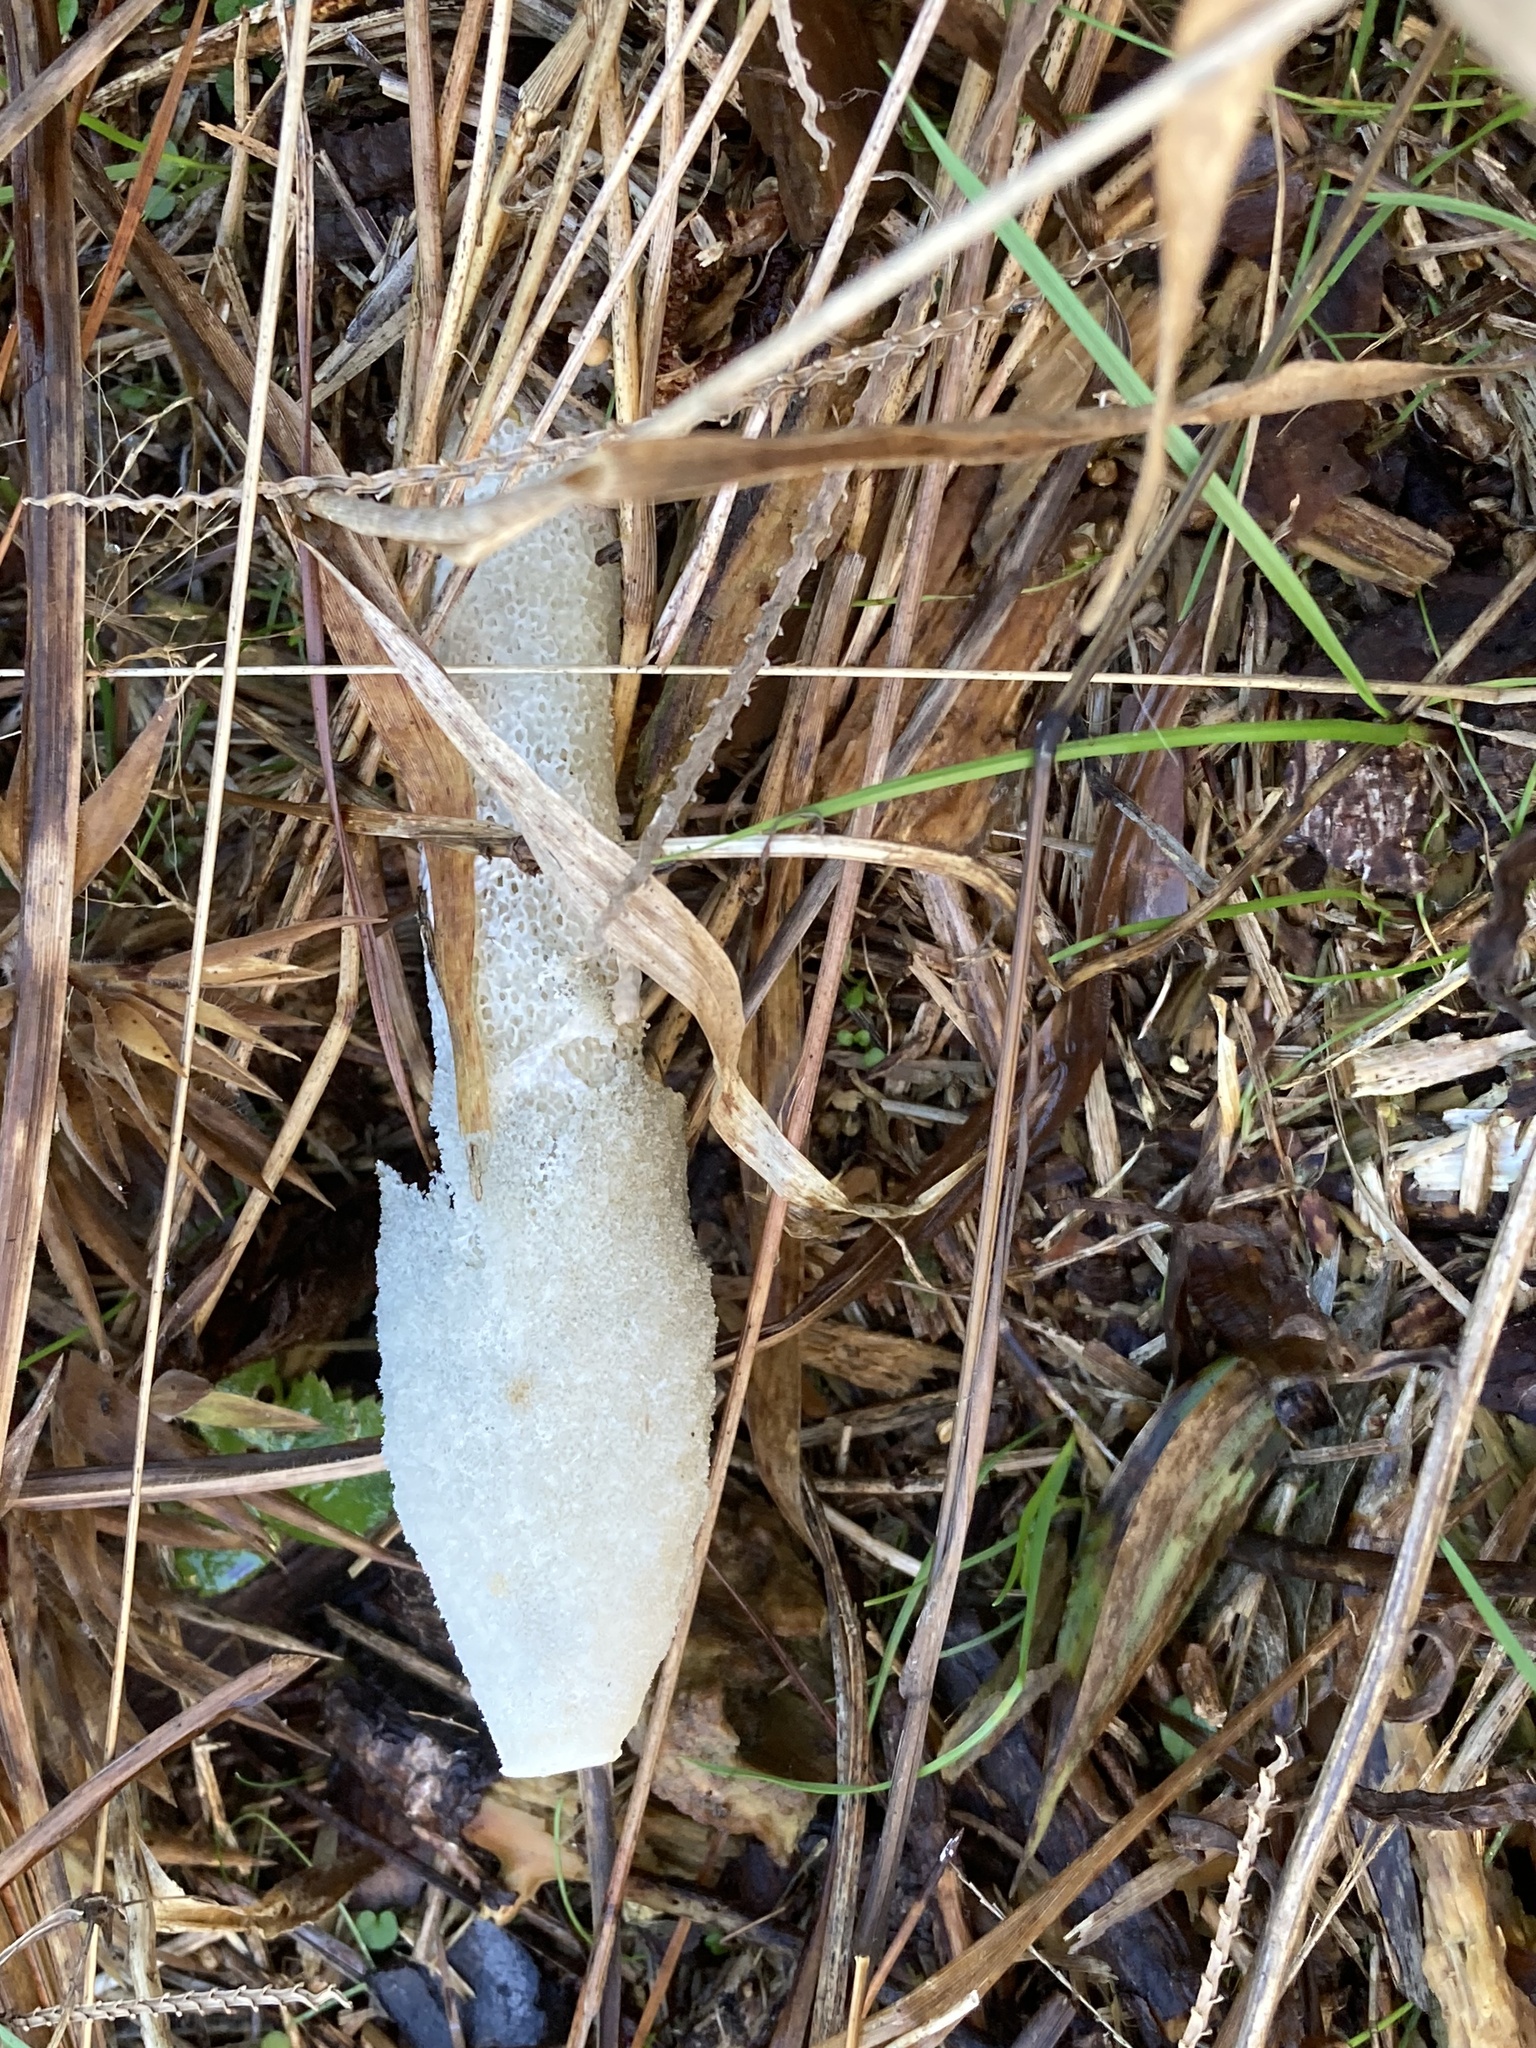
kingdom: Fungi
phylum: Basidiomycota
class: Agaricomycetes
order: Phallales
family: Phallaceae
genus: Phallus
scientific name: Phallus ravenelii
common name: Ravenel's stinkhorn
